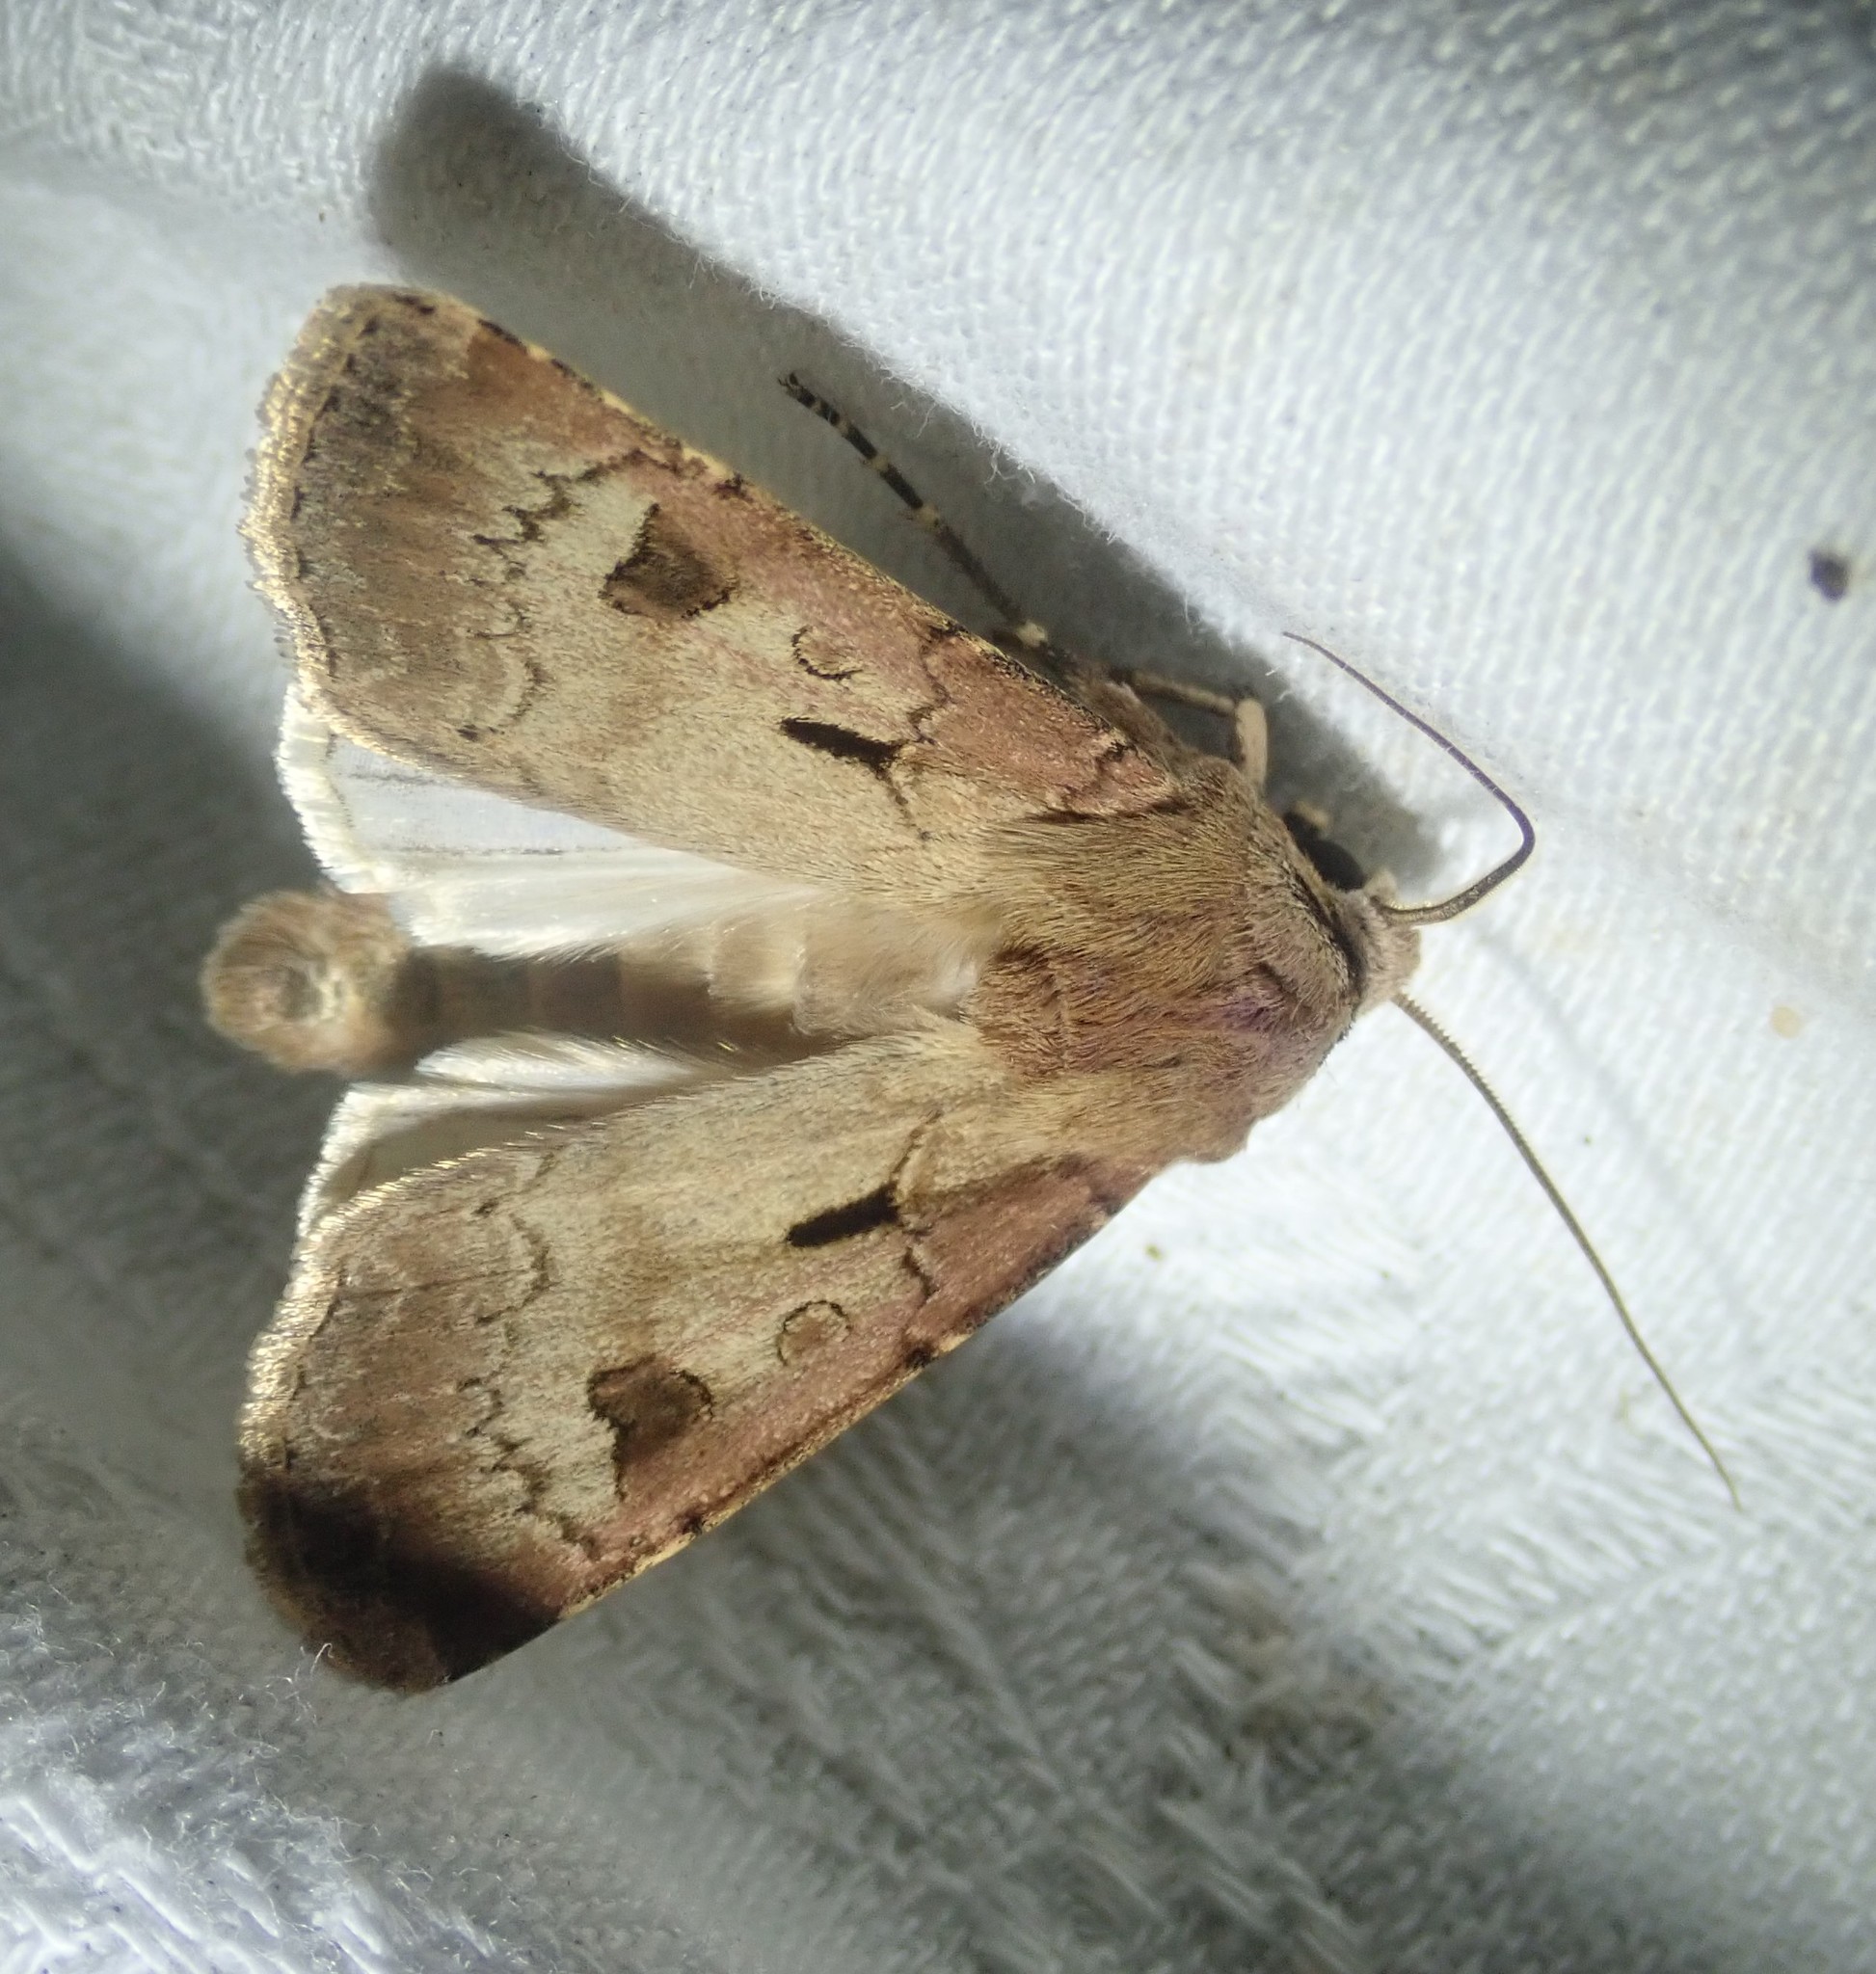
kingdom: Animalia
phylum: Arthropoda
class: Insecta
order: Lepidoptera
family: Noctuidae
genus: Agrotis
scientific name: Agrotis exclamationis
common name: Heart and dart
